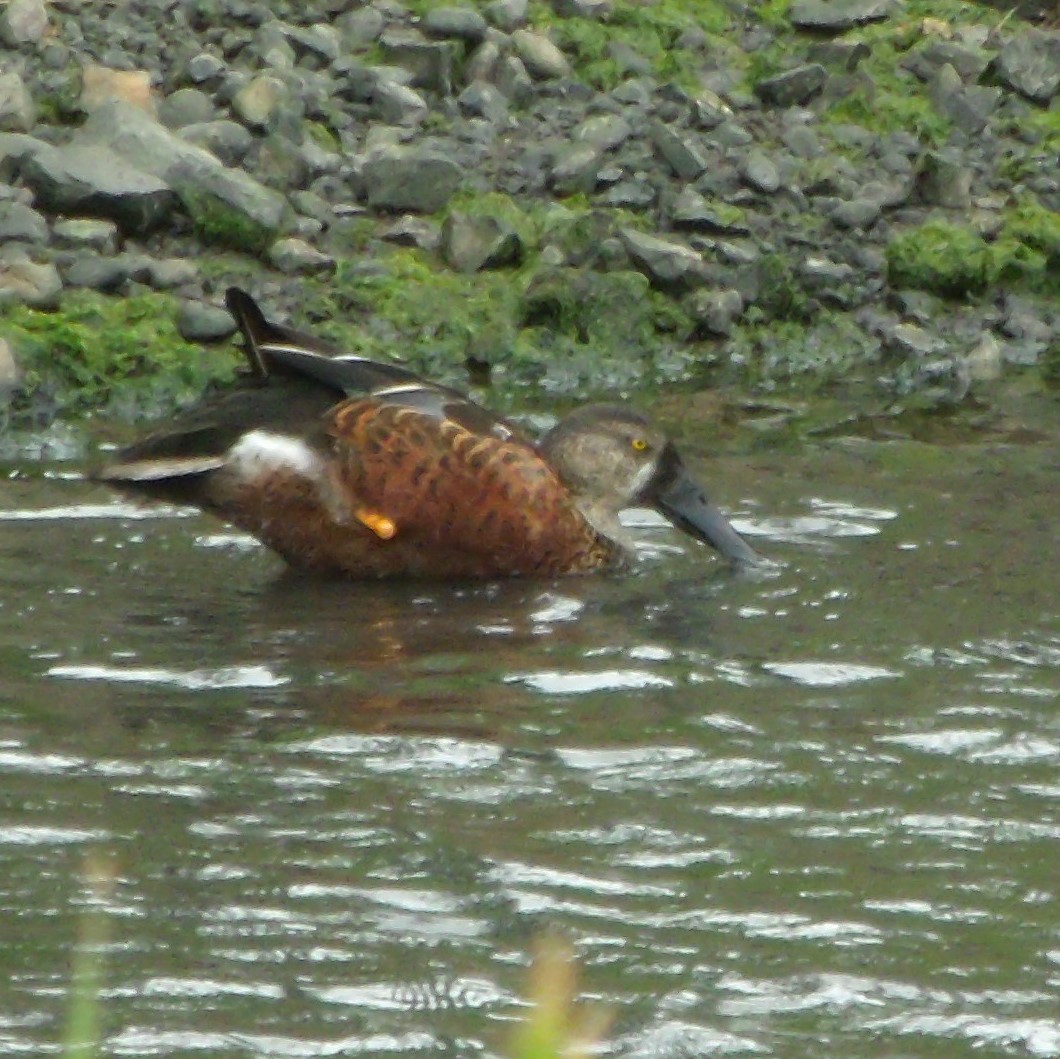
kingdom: Animalia
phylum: Chordata
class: Aves
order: Anseriformes
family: Anatidae
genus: Spatula
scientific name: Spatula rhynchotis
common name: Australian shoveler
